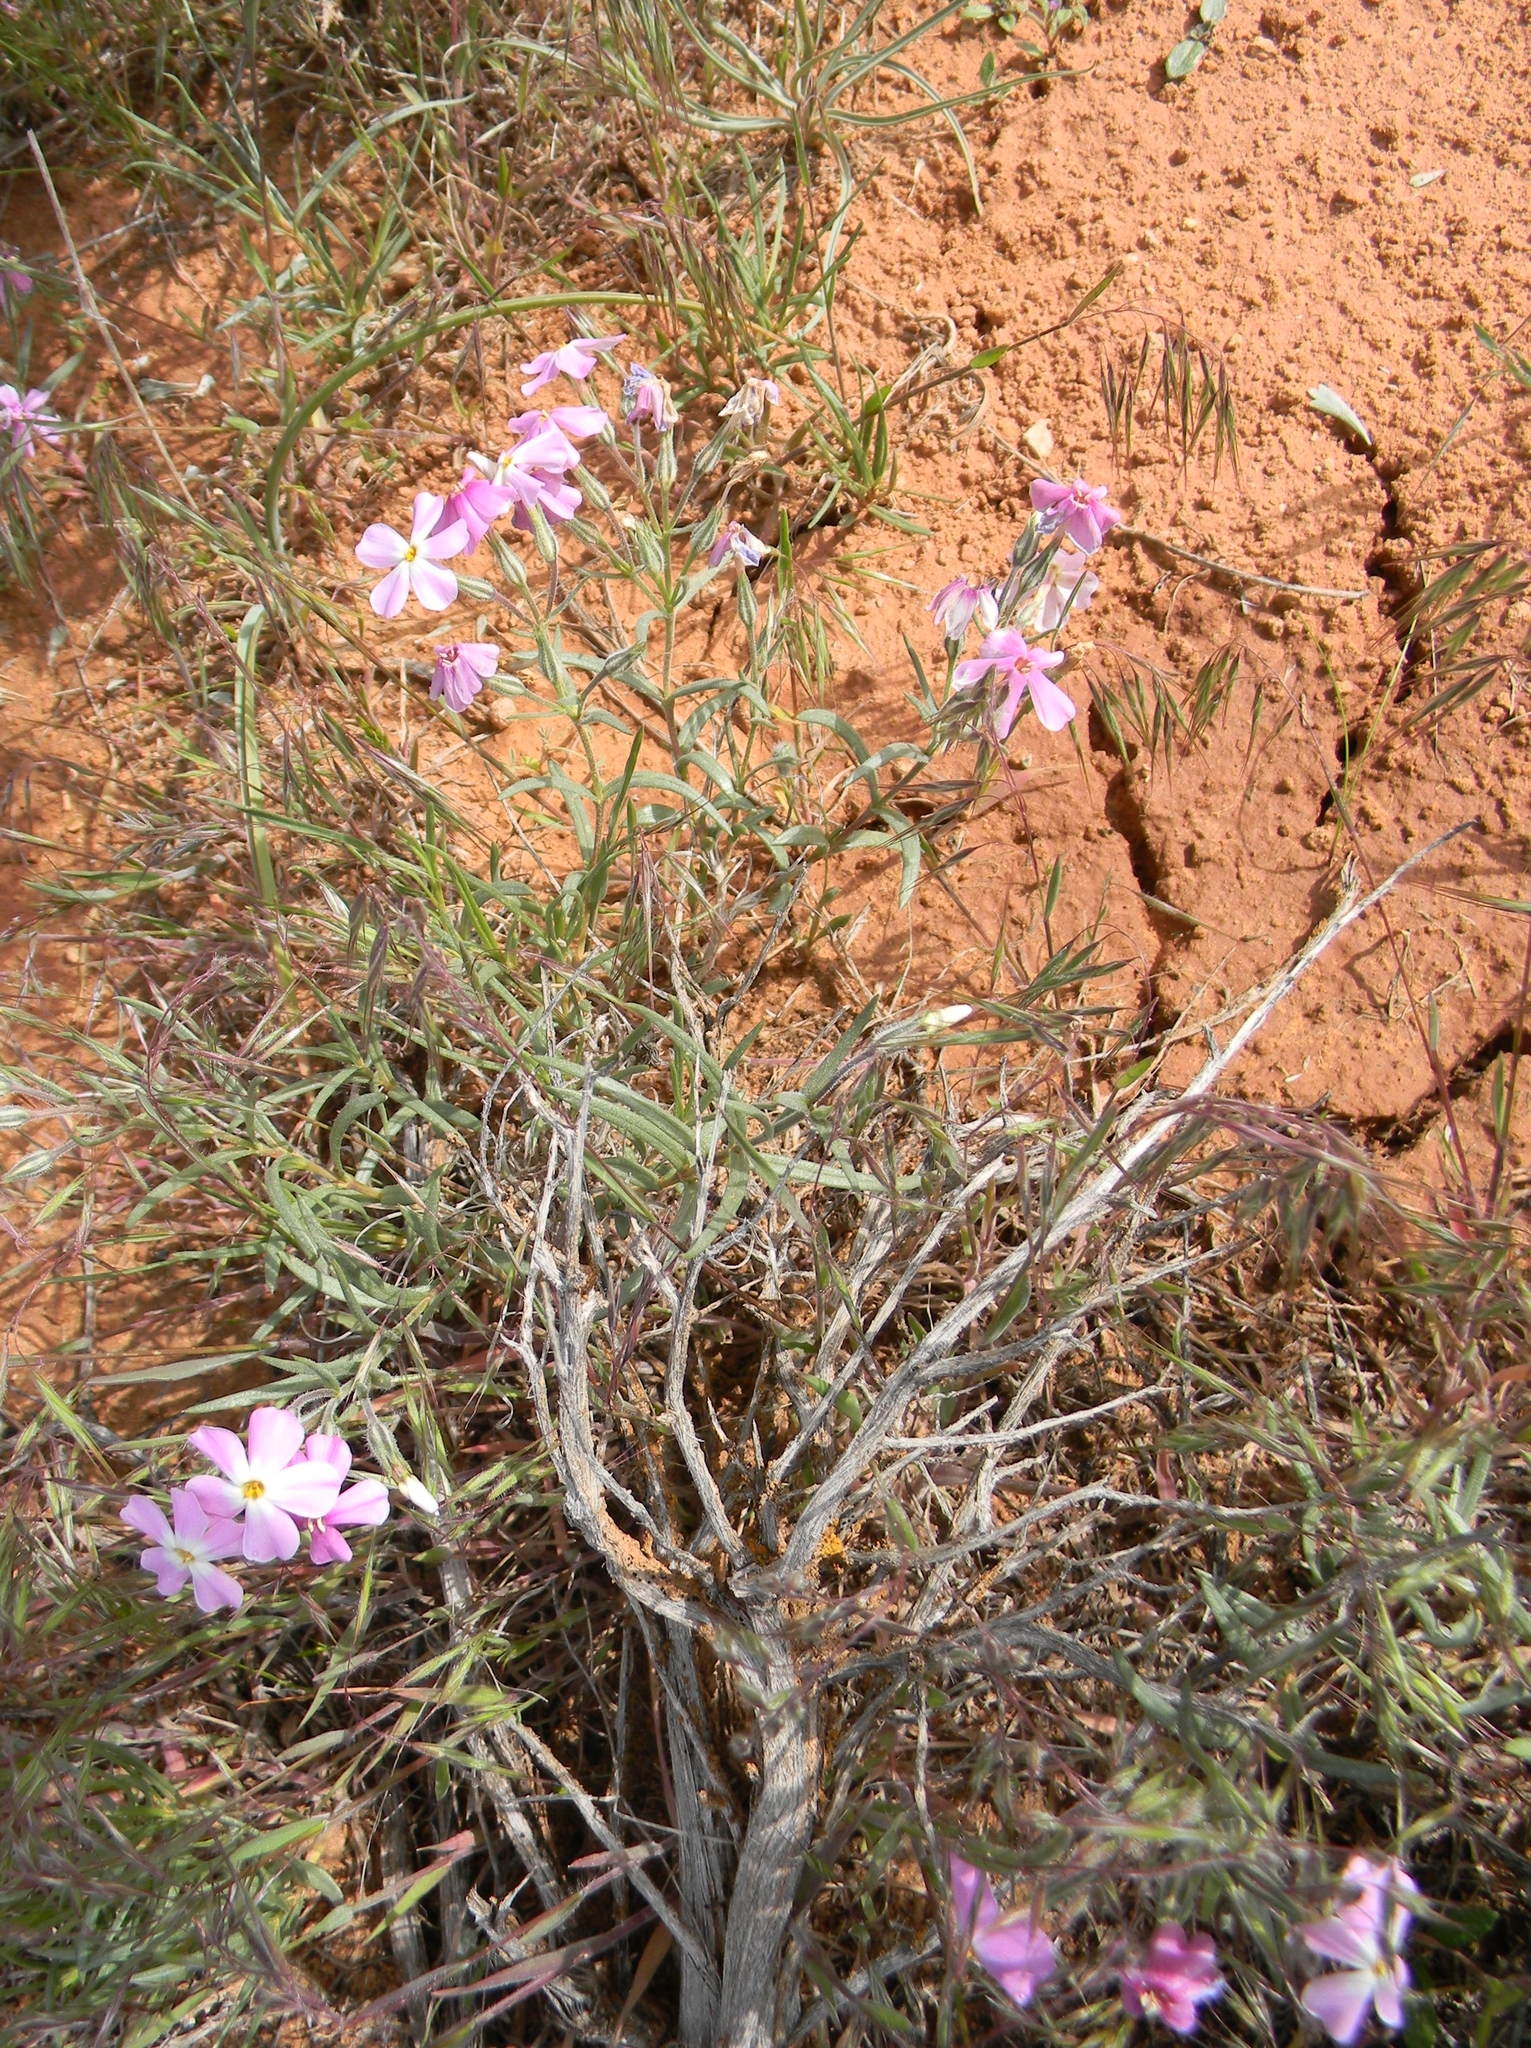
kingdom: Plantae
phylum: Tracheophyta
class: Magnoliopsida
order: Ericales
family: Polemoniaceae
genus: Phlox
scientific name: Phlox longifolia
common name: Longleaf phlox
